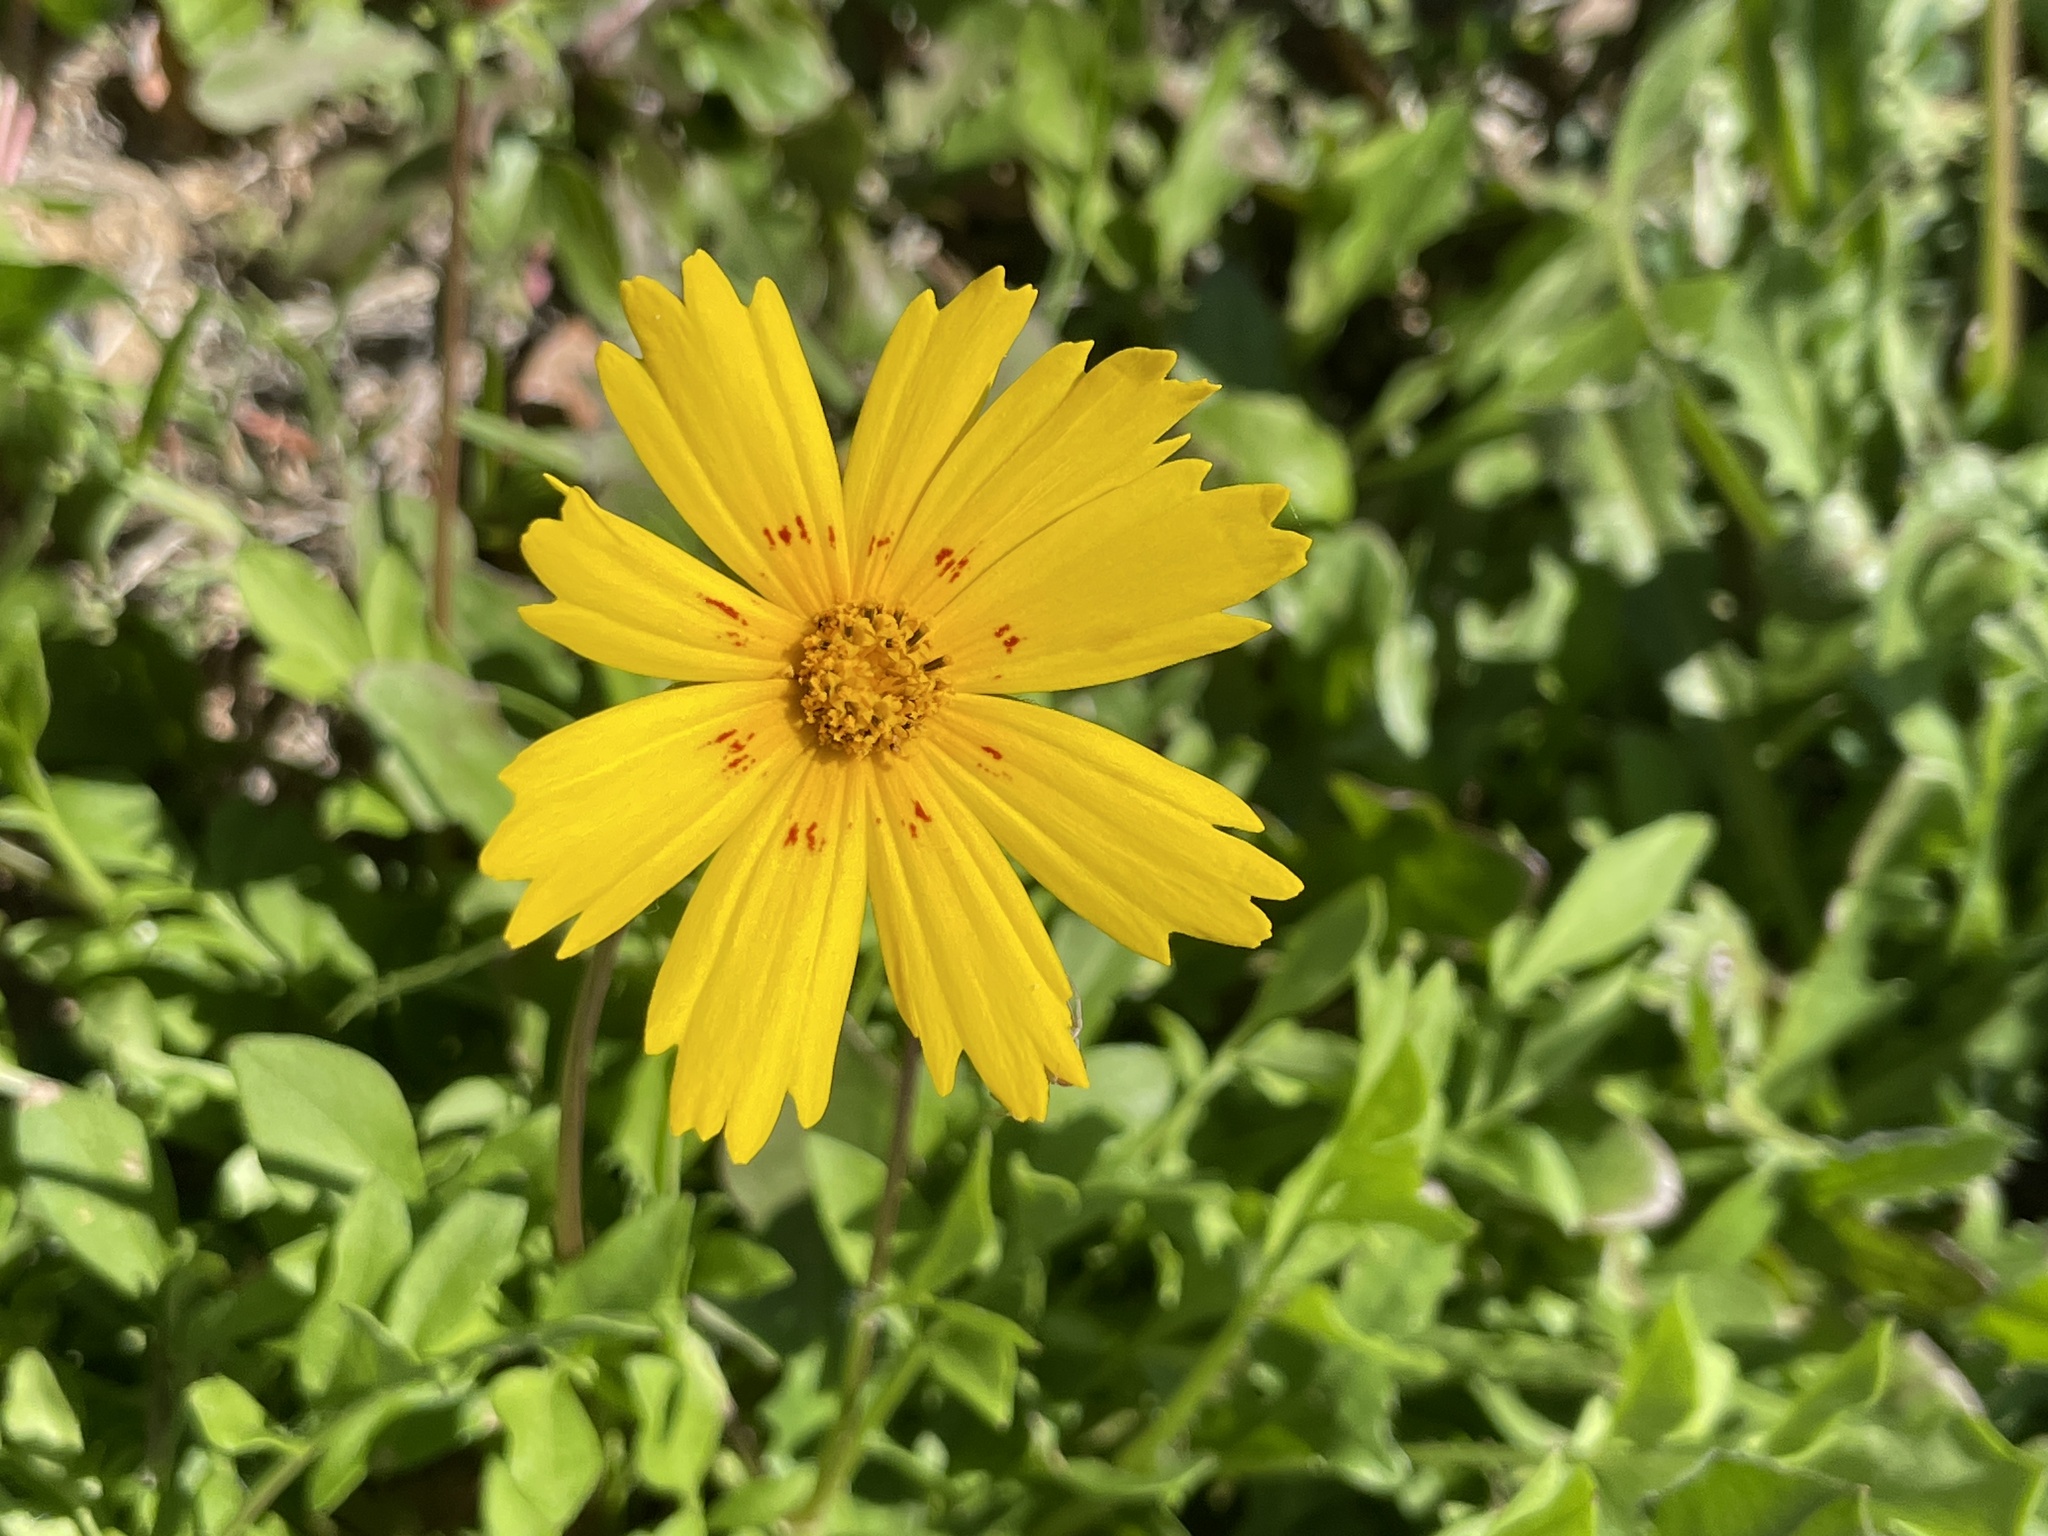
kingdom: Plantae
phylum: Tracheophyta
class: Magnoliopsida
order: Asterales
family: Asteraceae
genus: Coreopsis
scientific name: Coreopsis nuecensis
